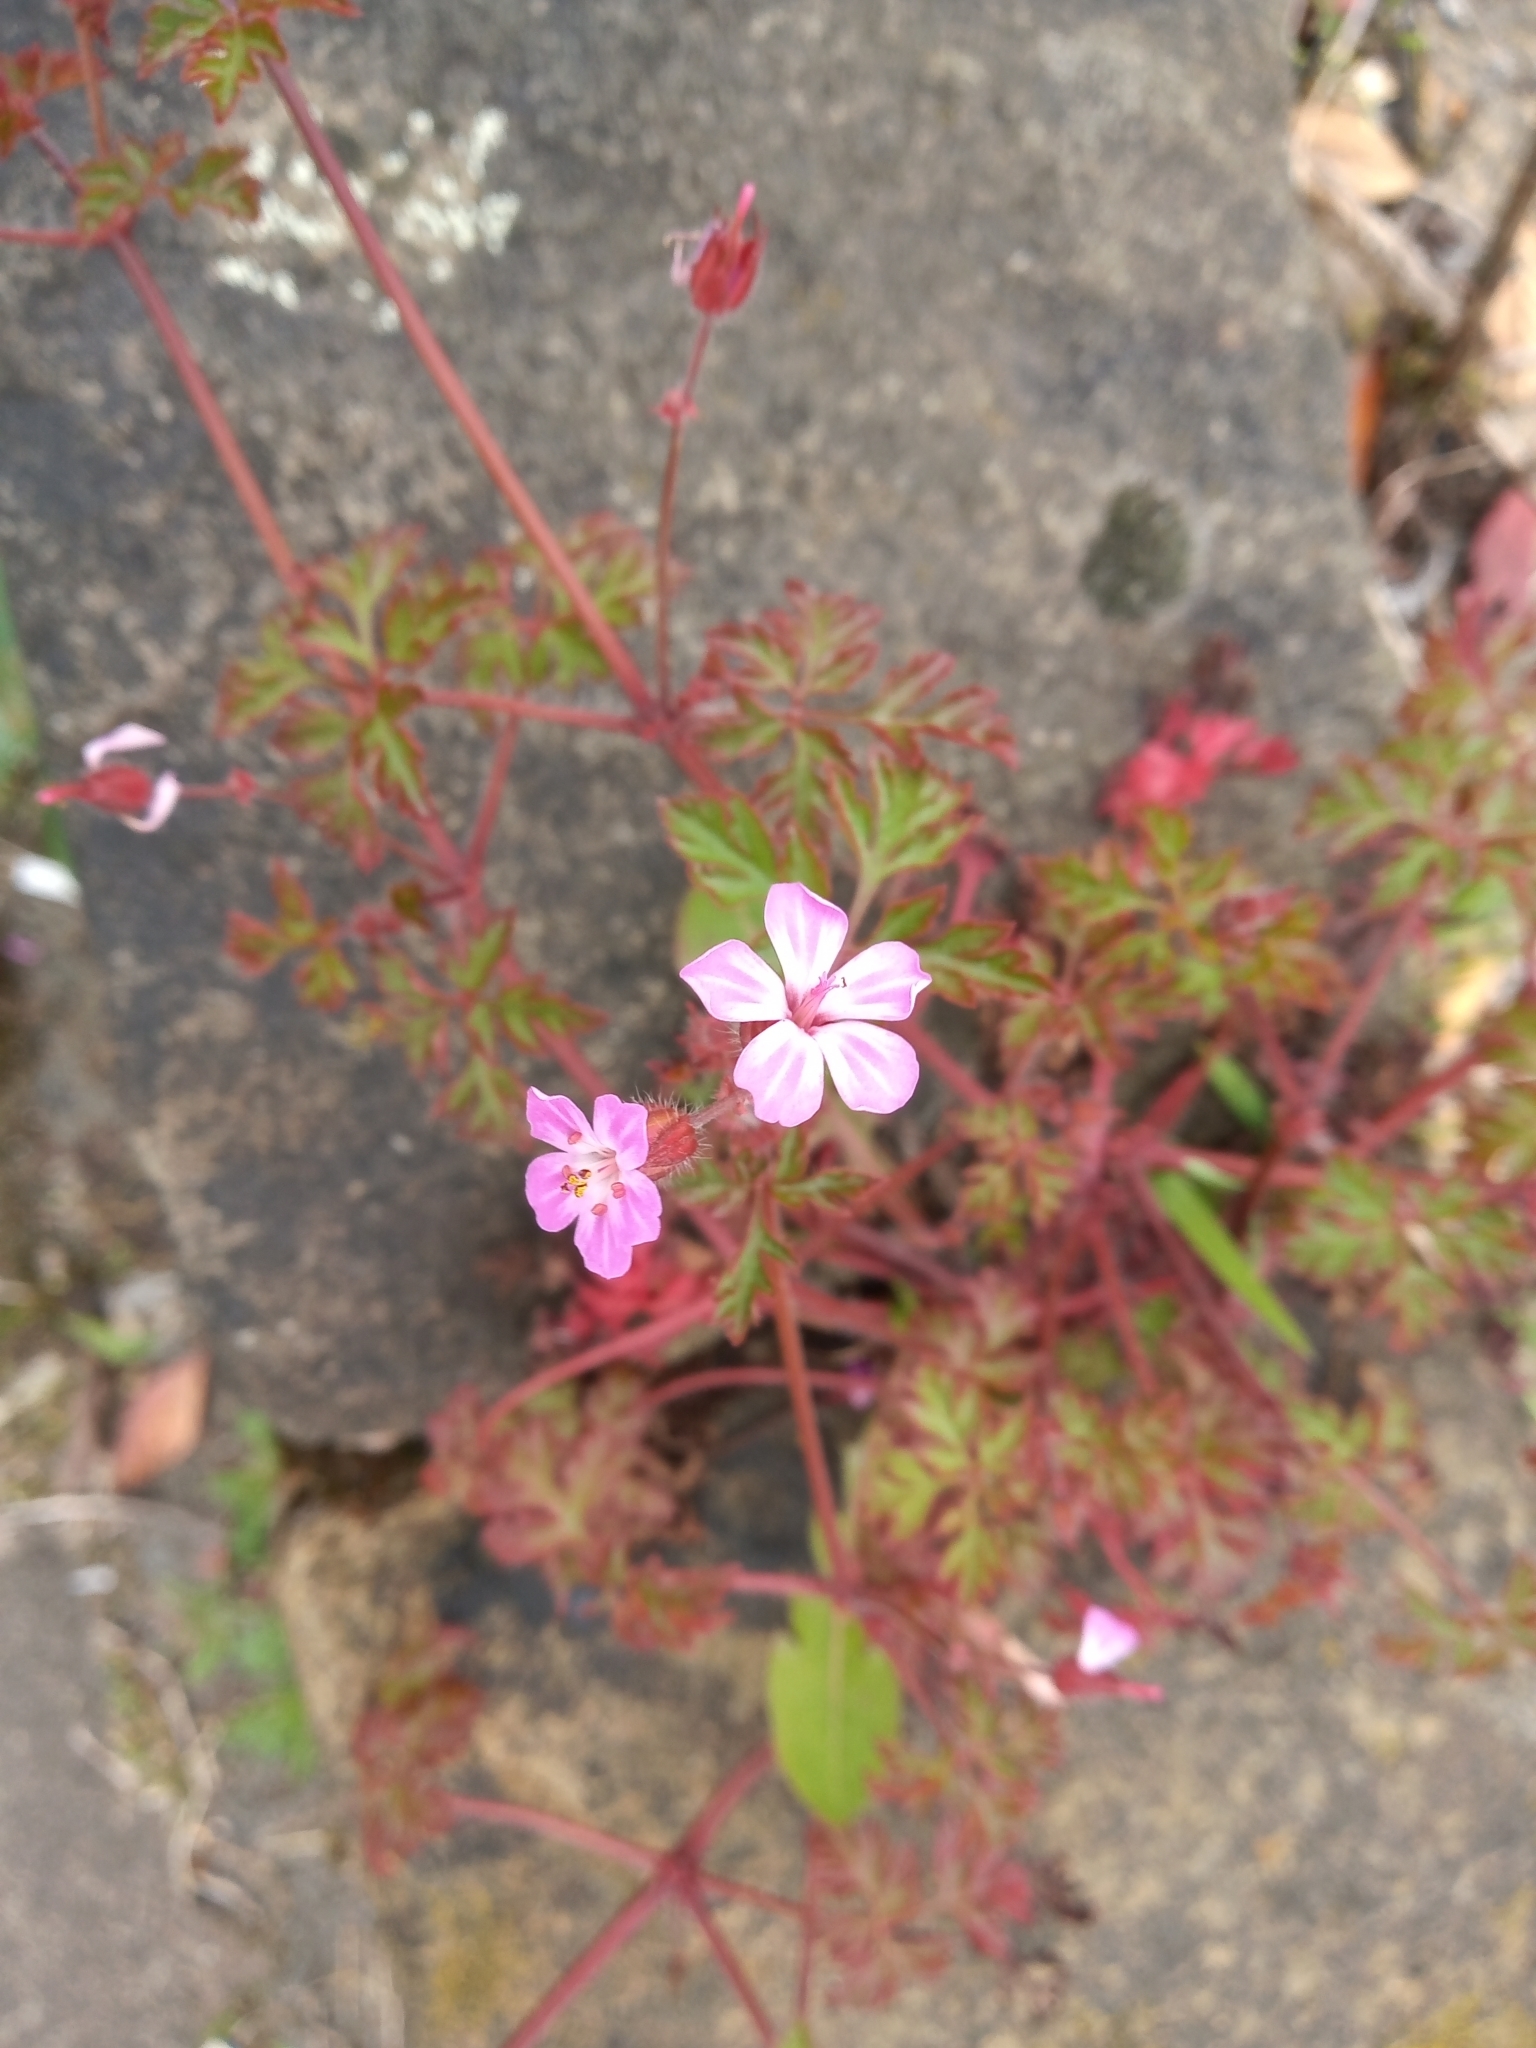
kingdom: Plantae
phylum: Tracheophyta
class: Magnoliopsida
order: Geraniales
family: Geraniaceae
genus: Geranium
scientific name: Geranium robertianum
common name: Herb-robert
